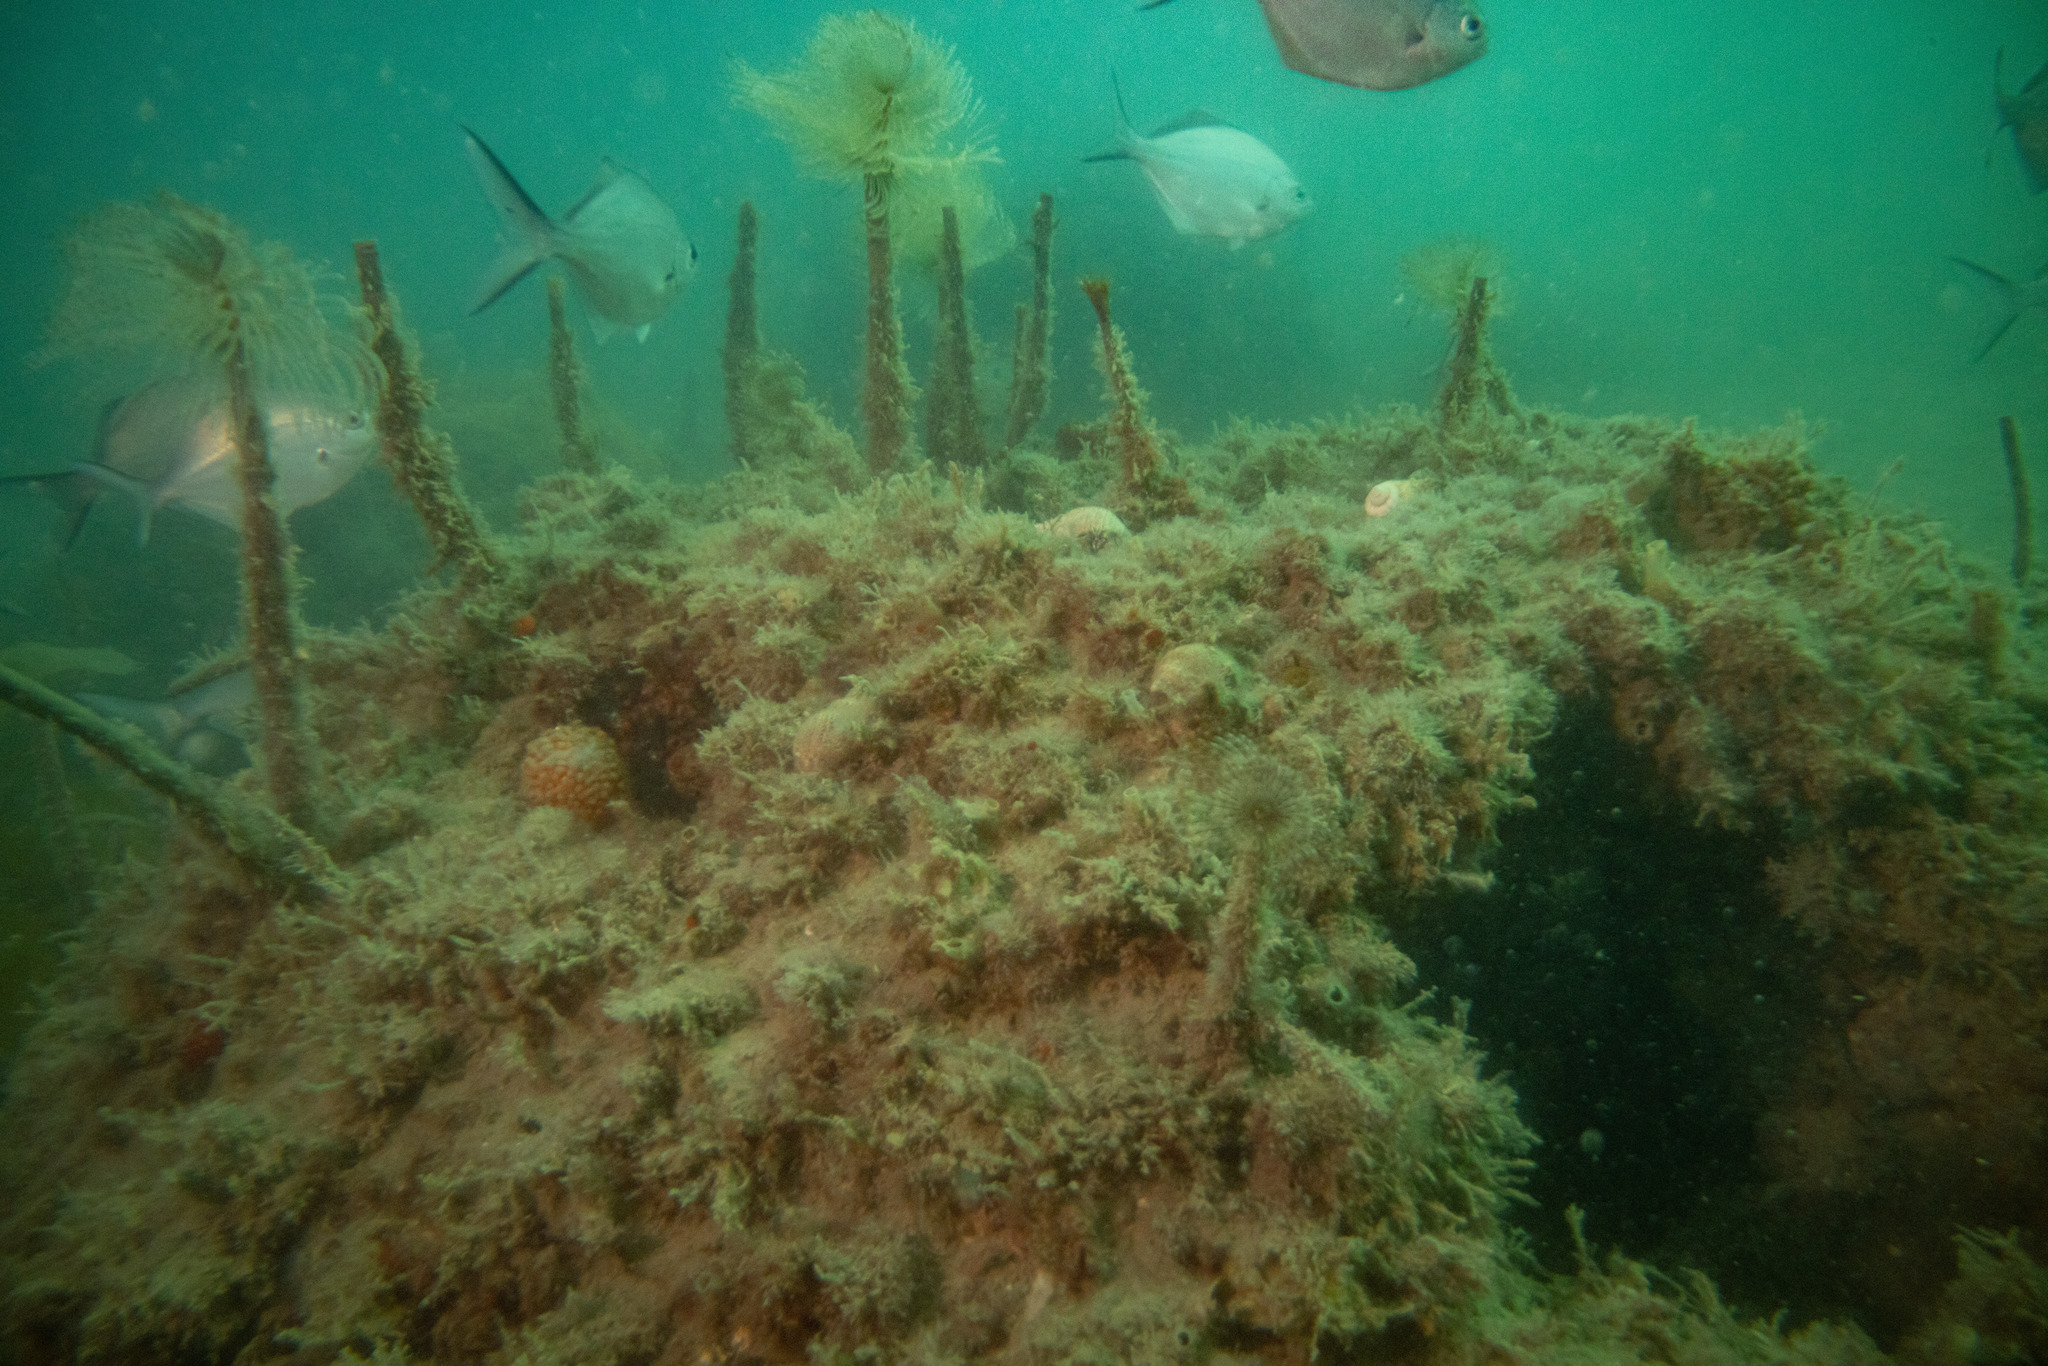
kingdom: Animalia
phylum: Annelida
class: Polychaeta
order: Sabellida
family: Sabellidae
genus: Sabella
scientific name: Sabella spallanzanii
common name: Feather duster worm
